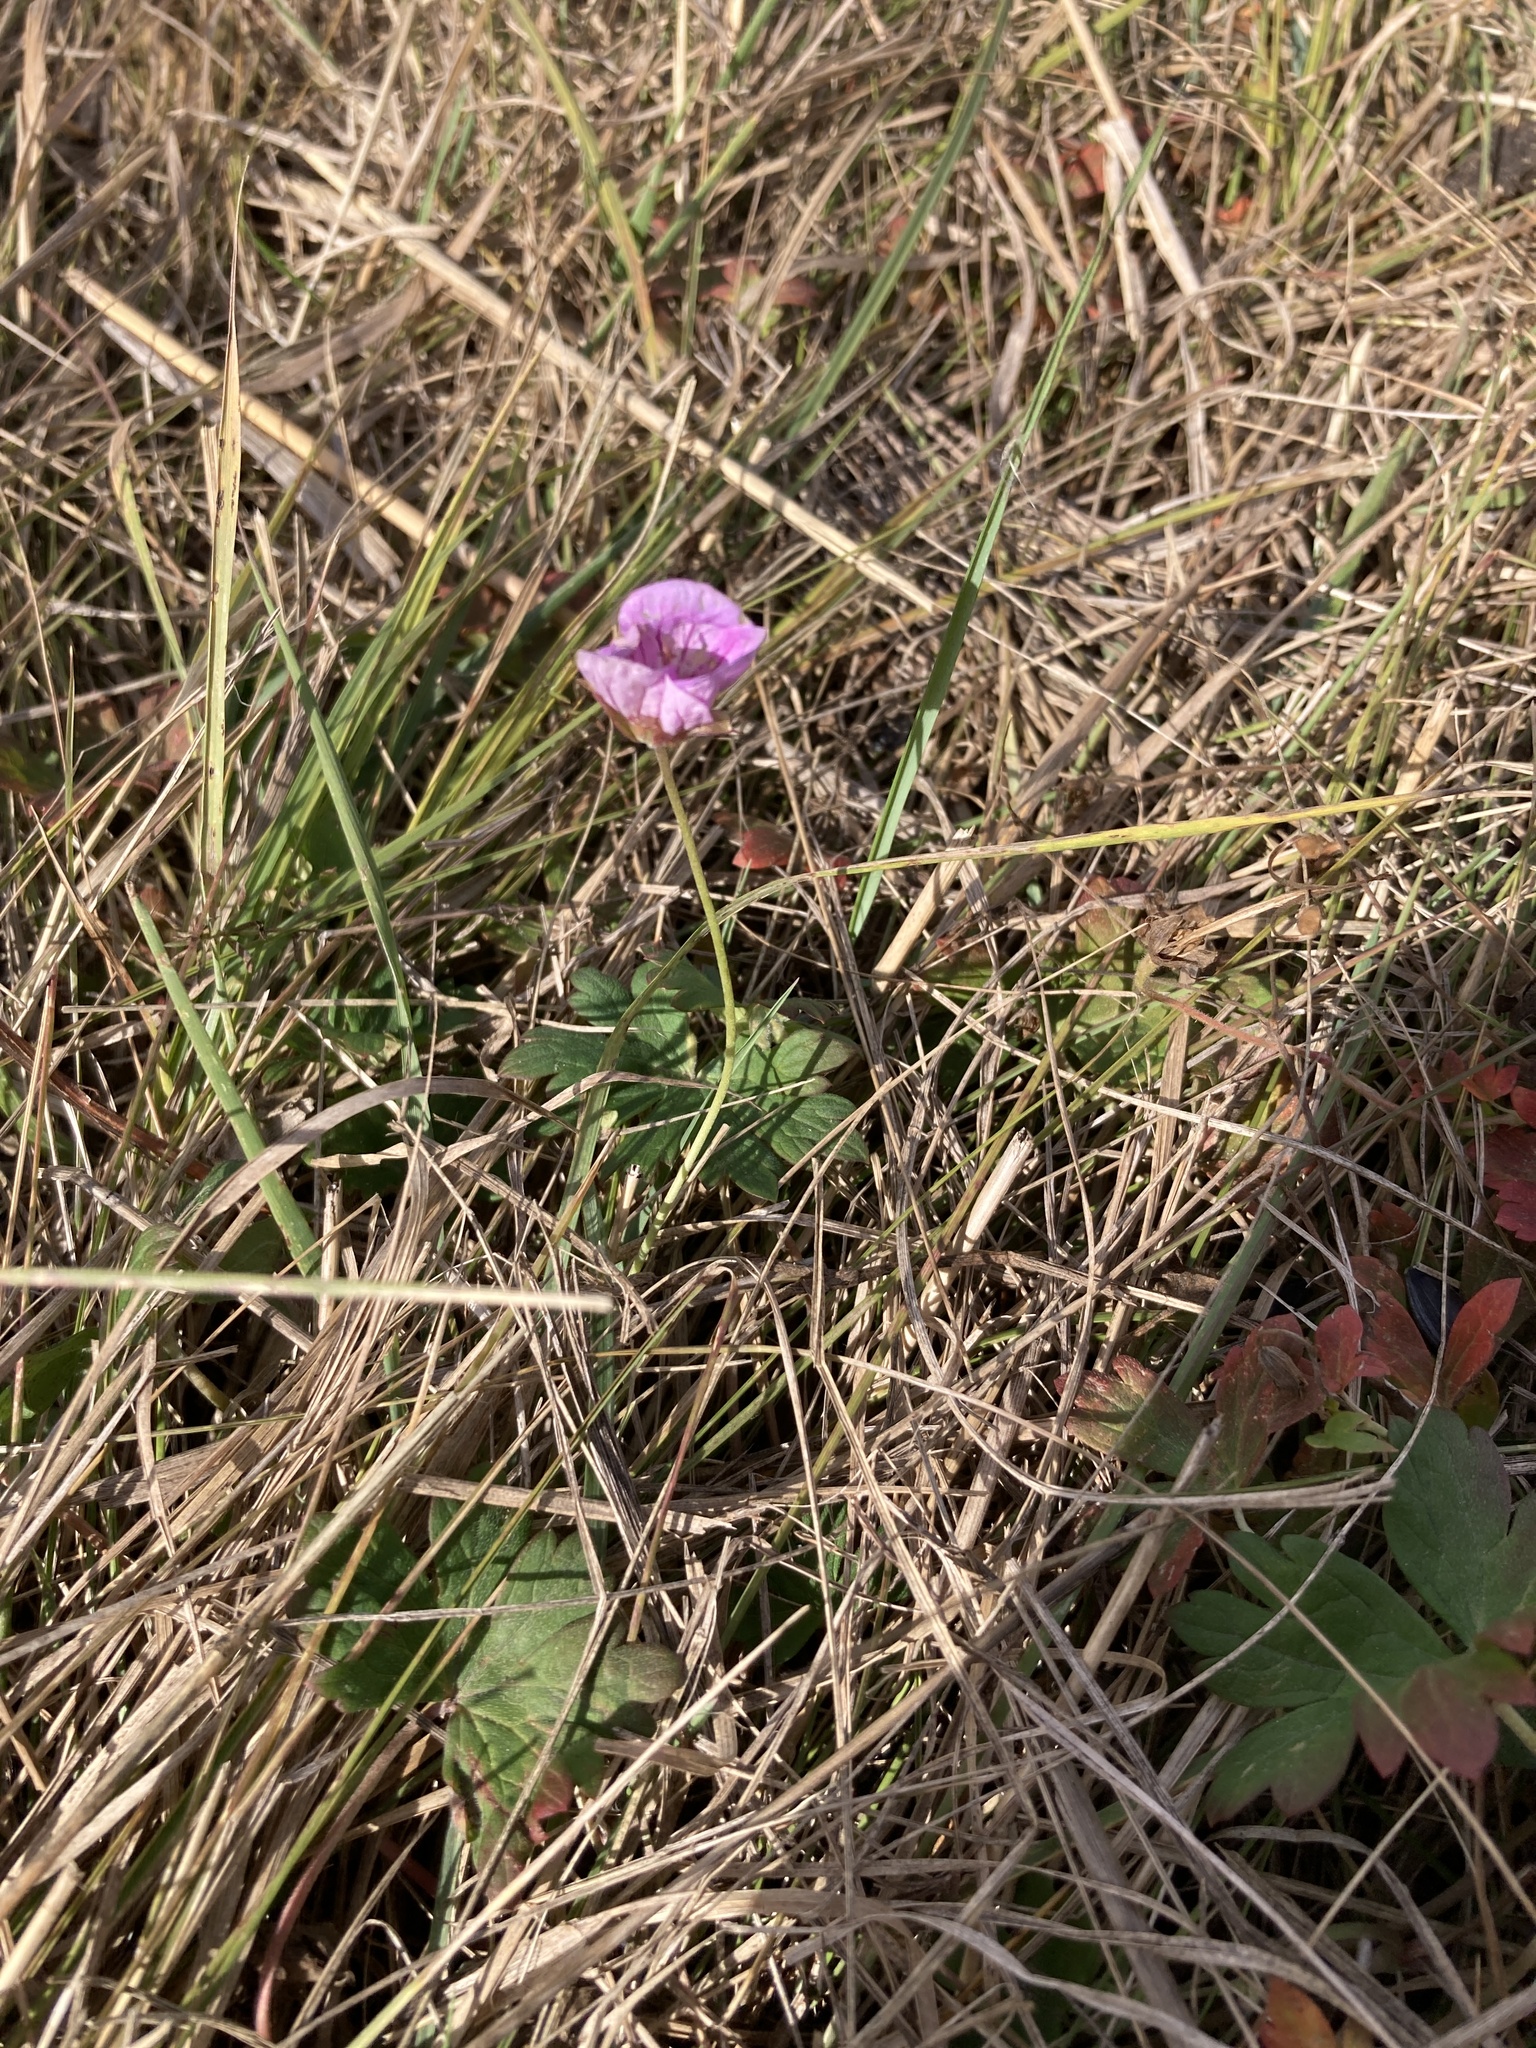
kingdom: Plantae
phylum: Tracheophyta
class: Magnoliopsida
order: Geraniales
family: Geraniaceae
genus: Geranium
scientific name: Geranium collinum
